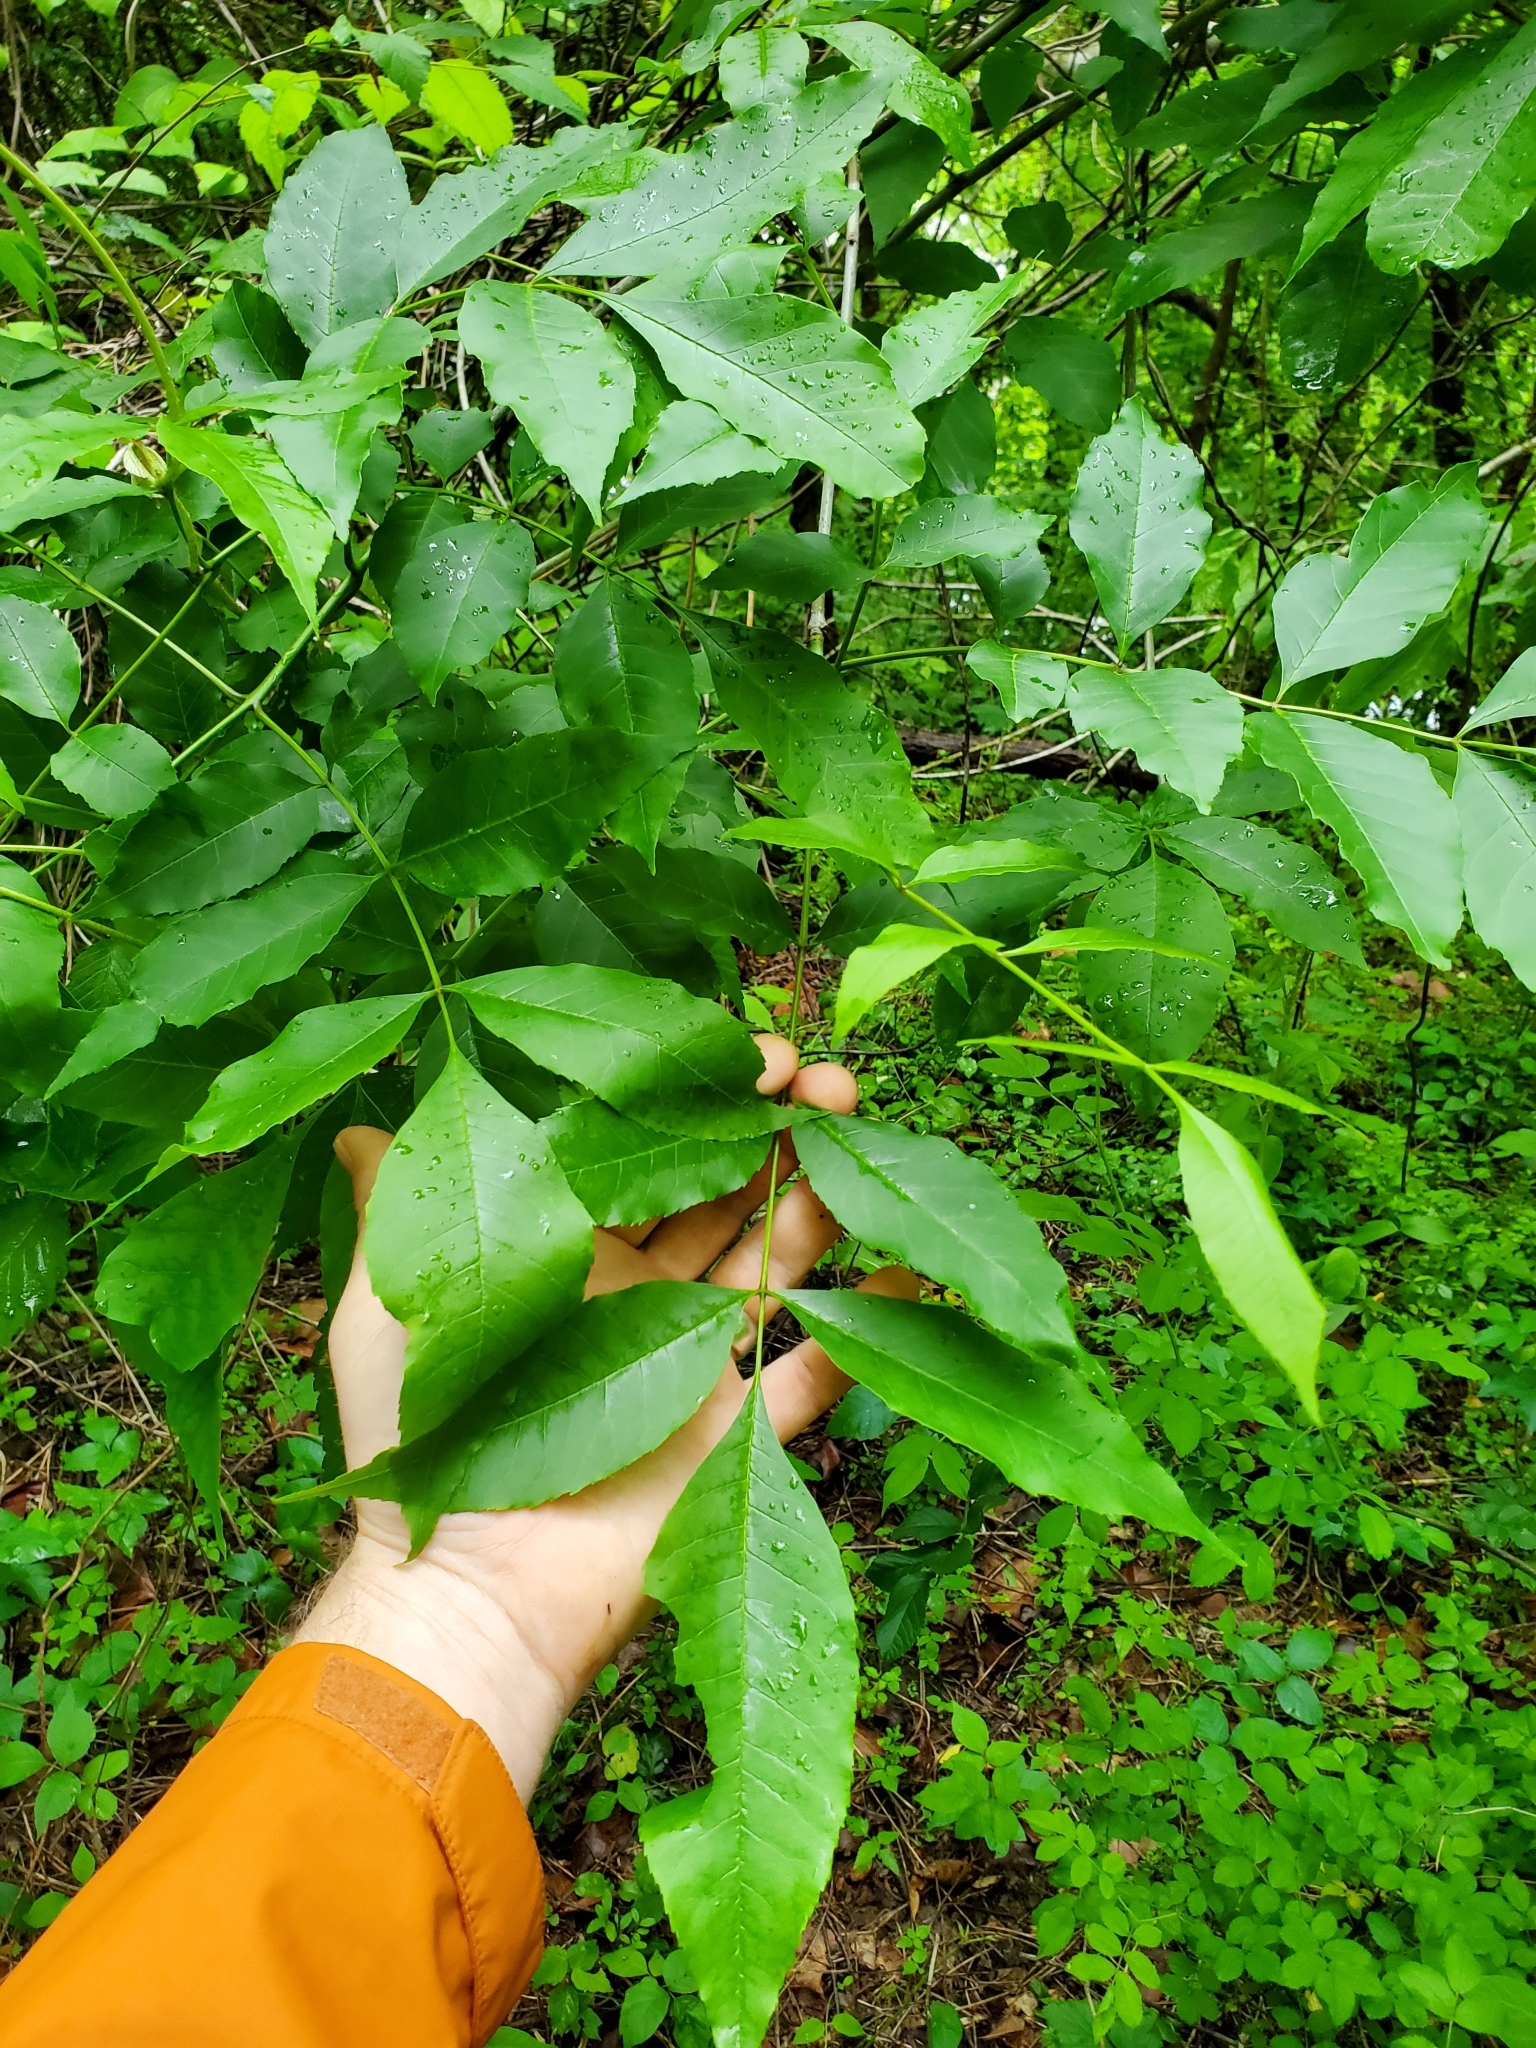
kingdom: Plantae
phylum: Tracheophyta
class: Magnoliopsida
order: Lamiales
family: Oleaceae
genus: Fraxinus
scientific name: Fraxinus pennsylvanica
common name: Green ash
